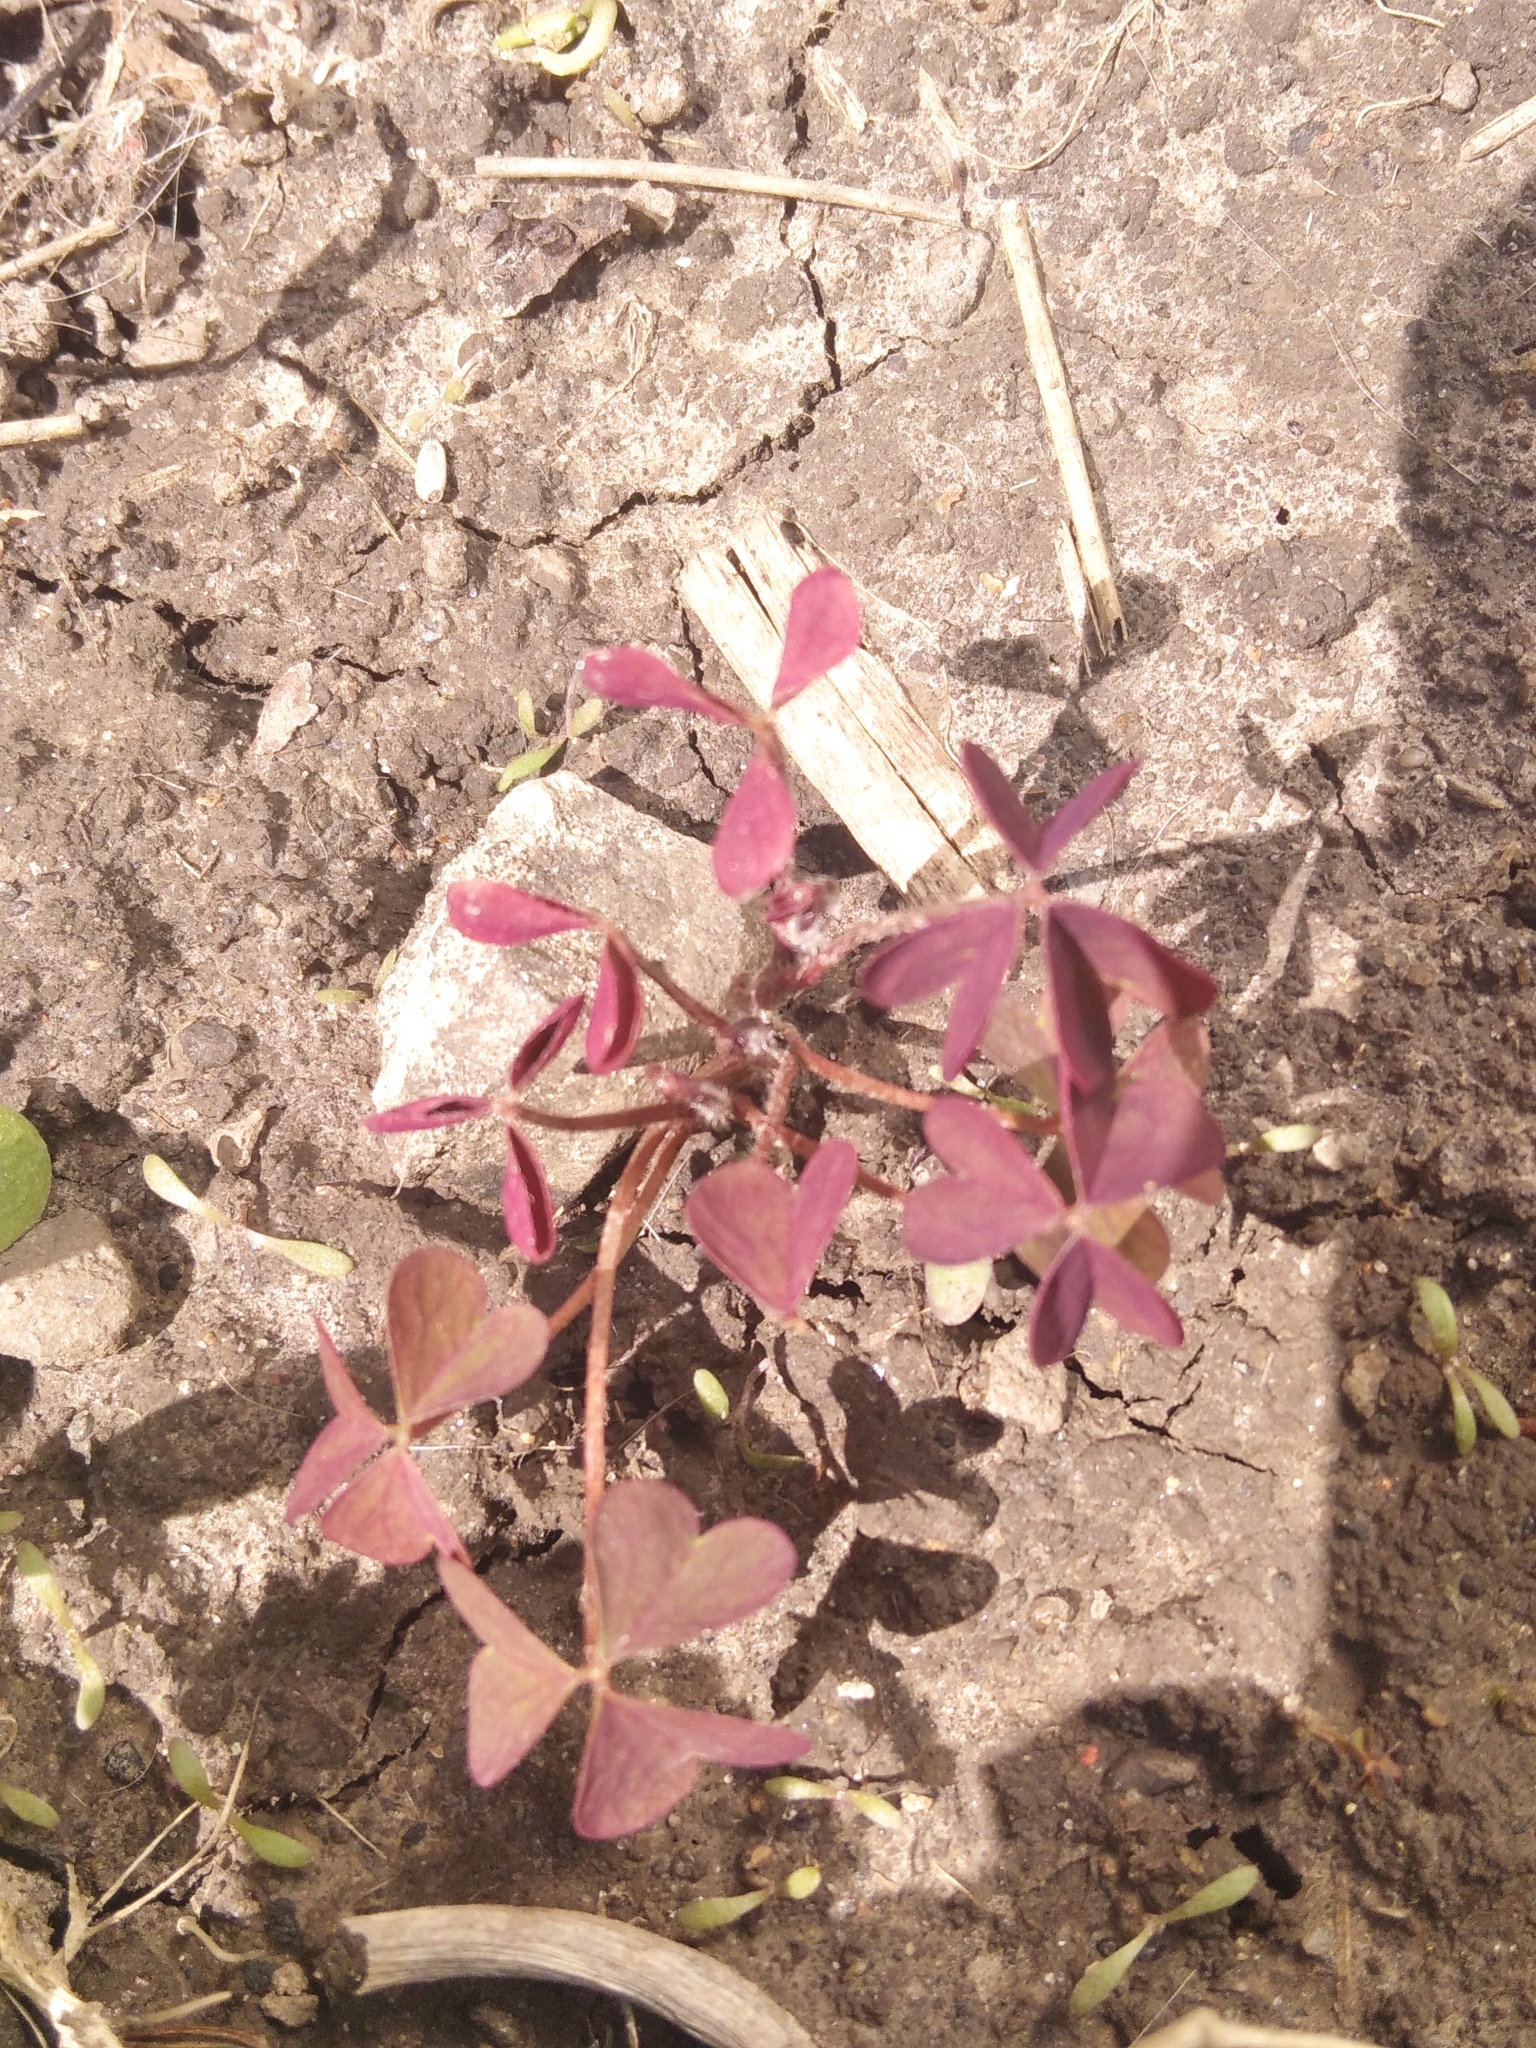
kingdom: Plantae
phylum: Tracheophyta
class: Magnoliopsida
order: Oxalidales
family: Oxalidaceae
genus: Oxalis
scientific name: Oxalis stricta
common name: Upright yellow-sorrel
